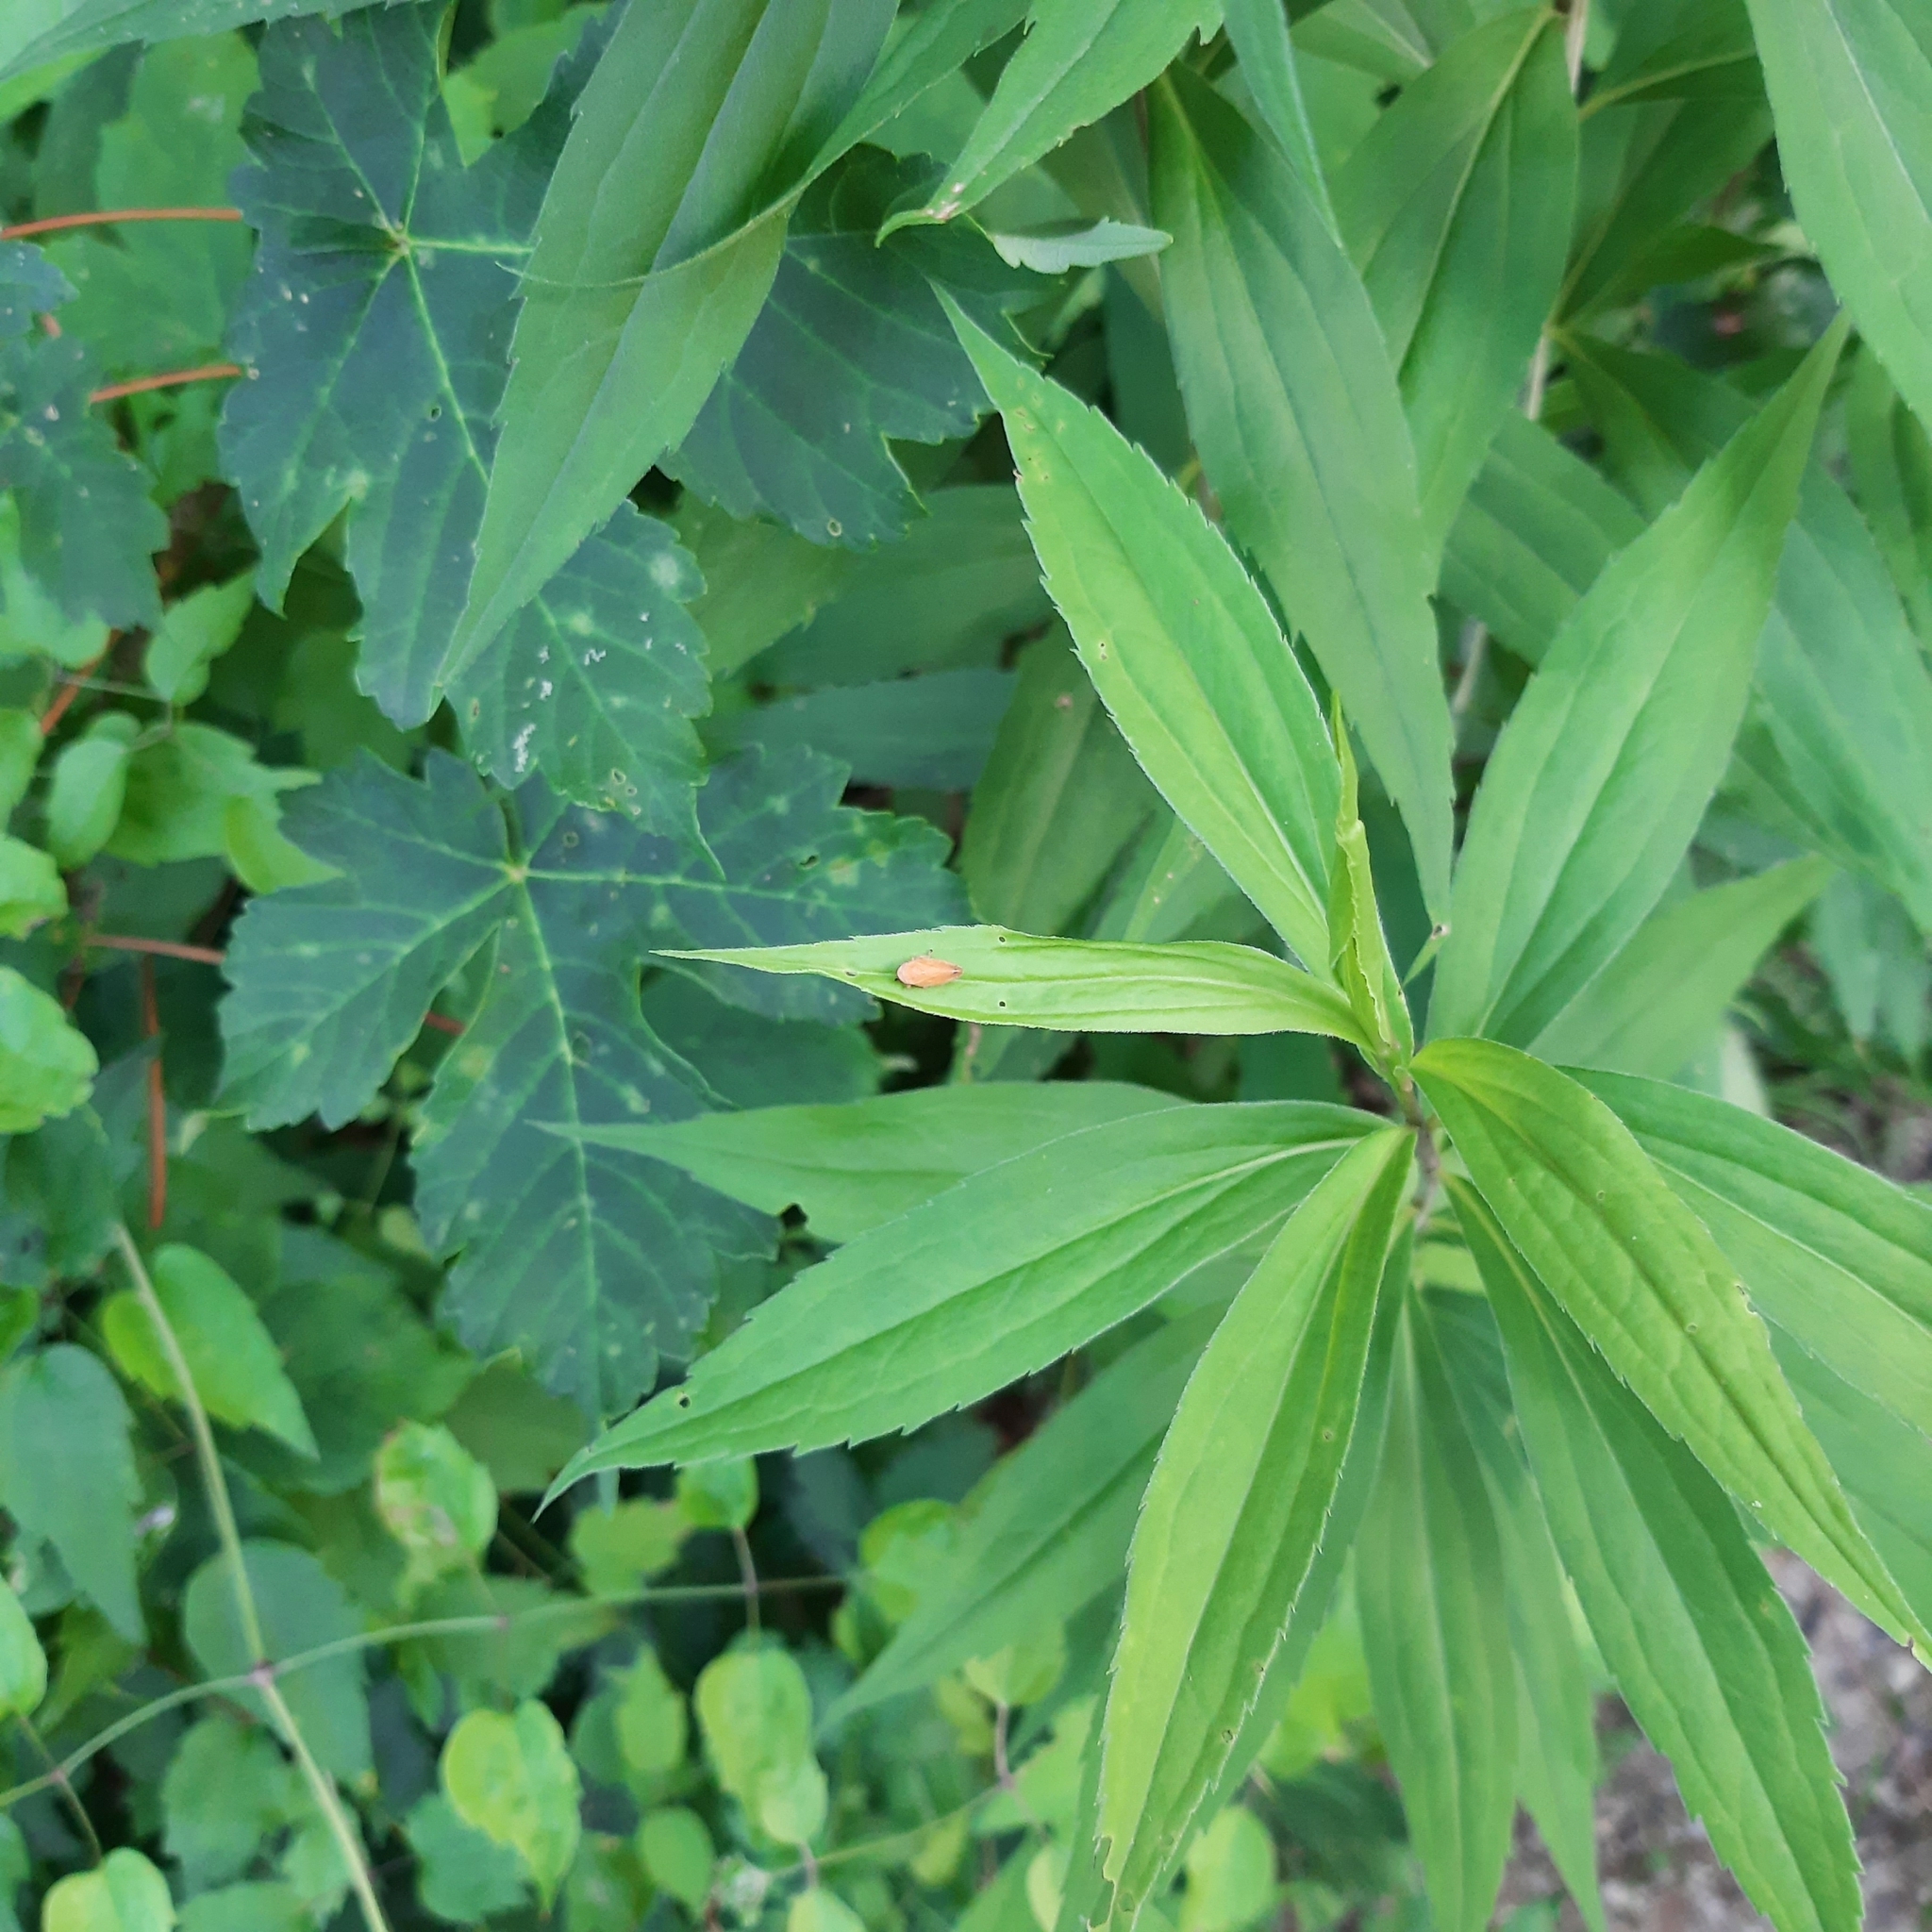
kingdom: Animalia
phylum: Arthropoda
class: Insecta
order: Hemiptera
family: Aphrophoridae
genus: Philaenus
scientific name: Philaenus spumarius
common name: Meadow spittlebug
